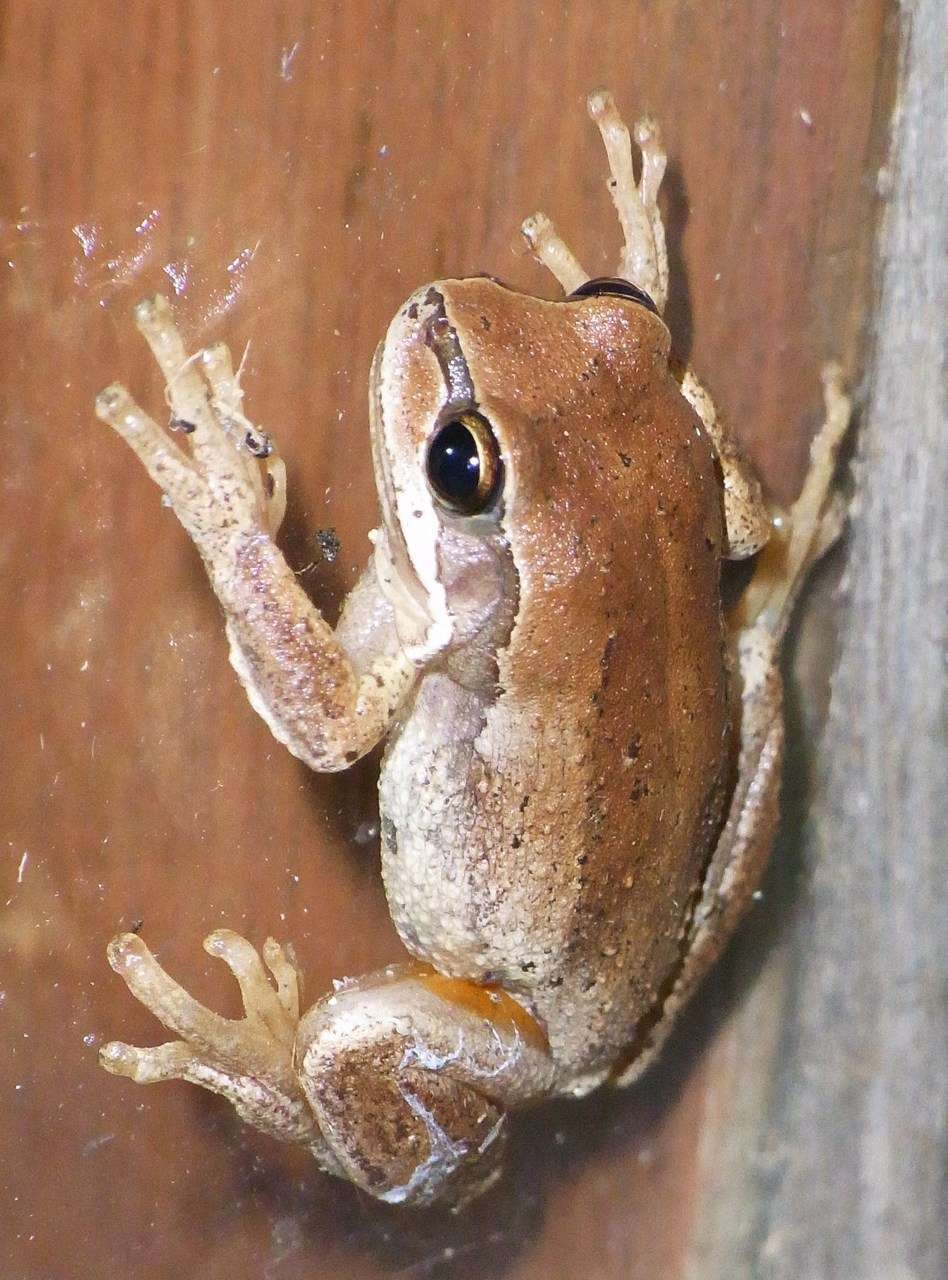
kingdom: Animalia
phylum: Chordata
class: Amphibia
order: Anura
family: Pelodryadidae
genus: Litoria
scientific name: Litoria ewingii
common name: Southern brown tree frog
